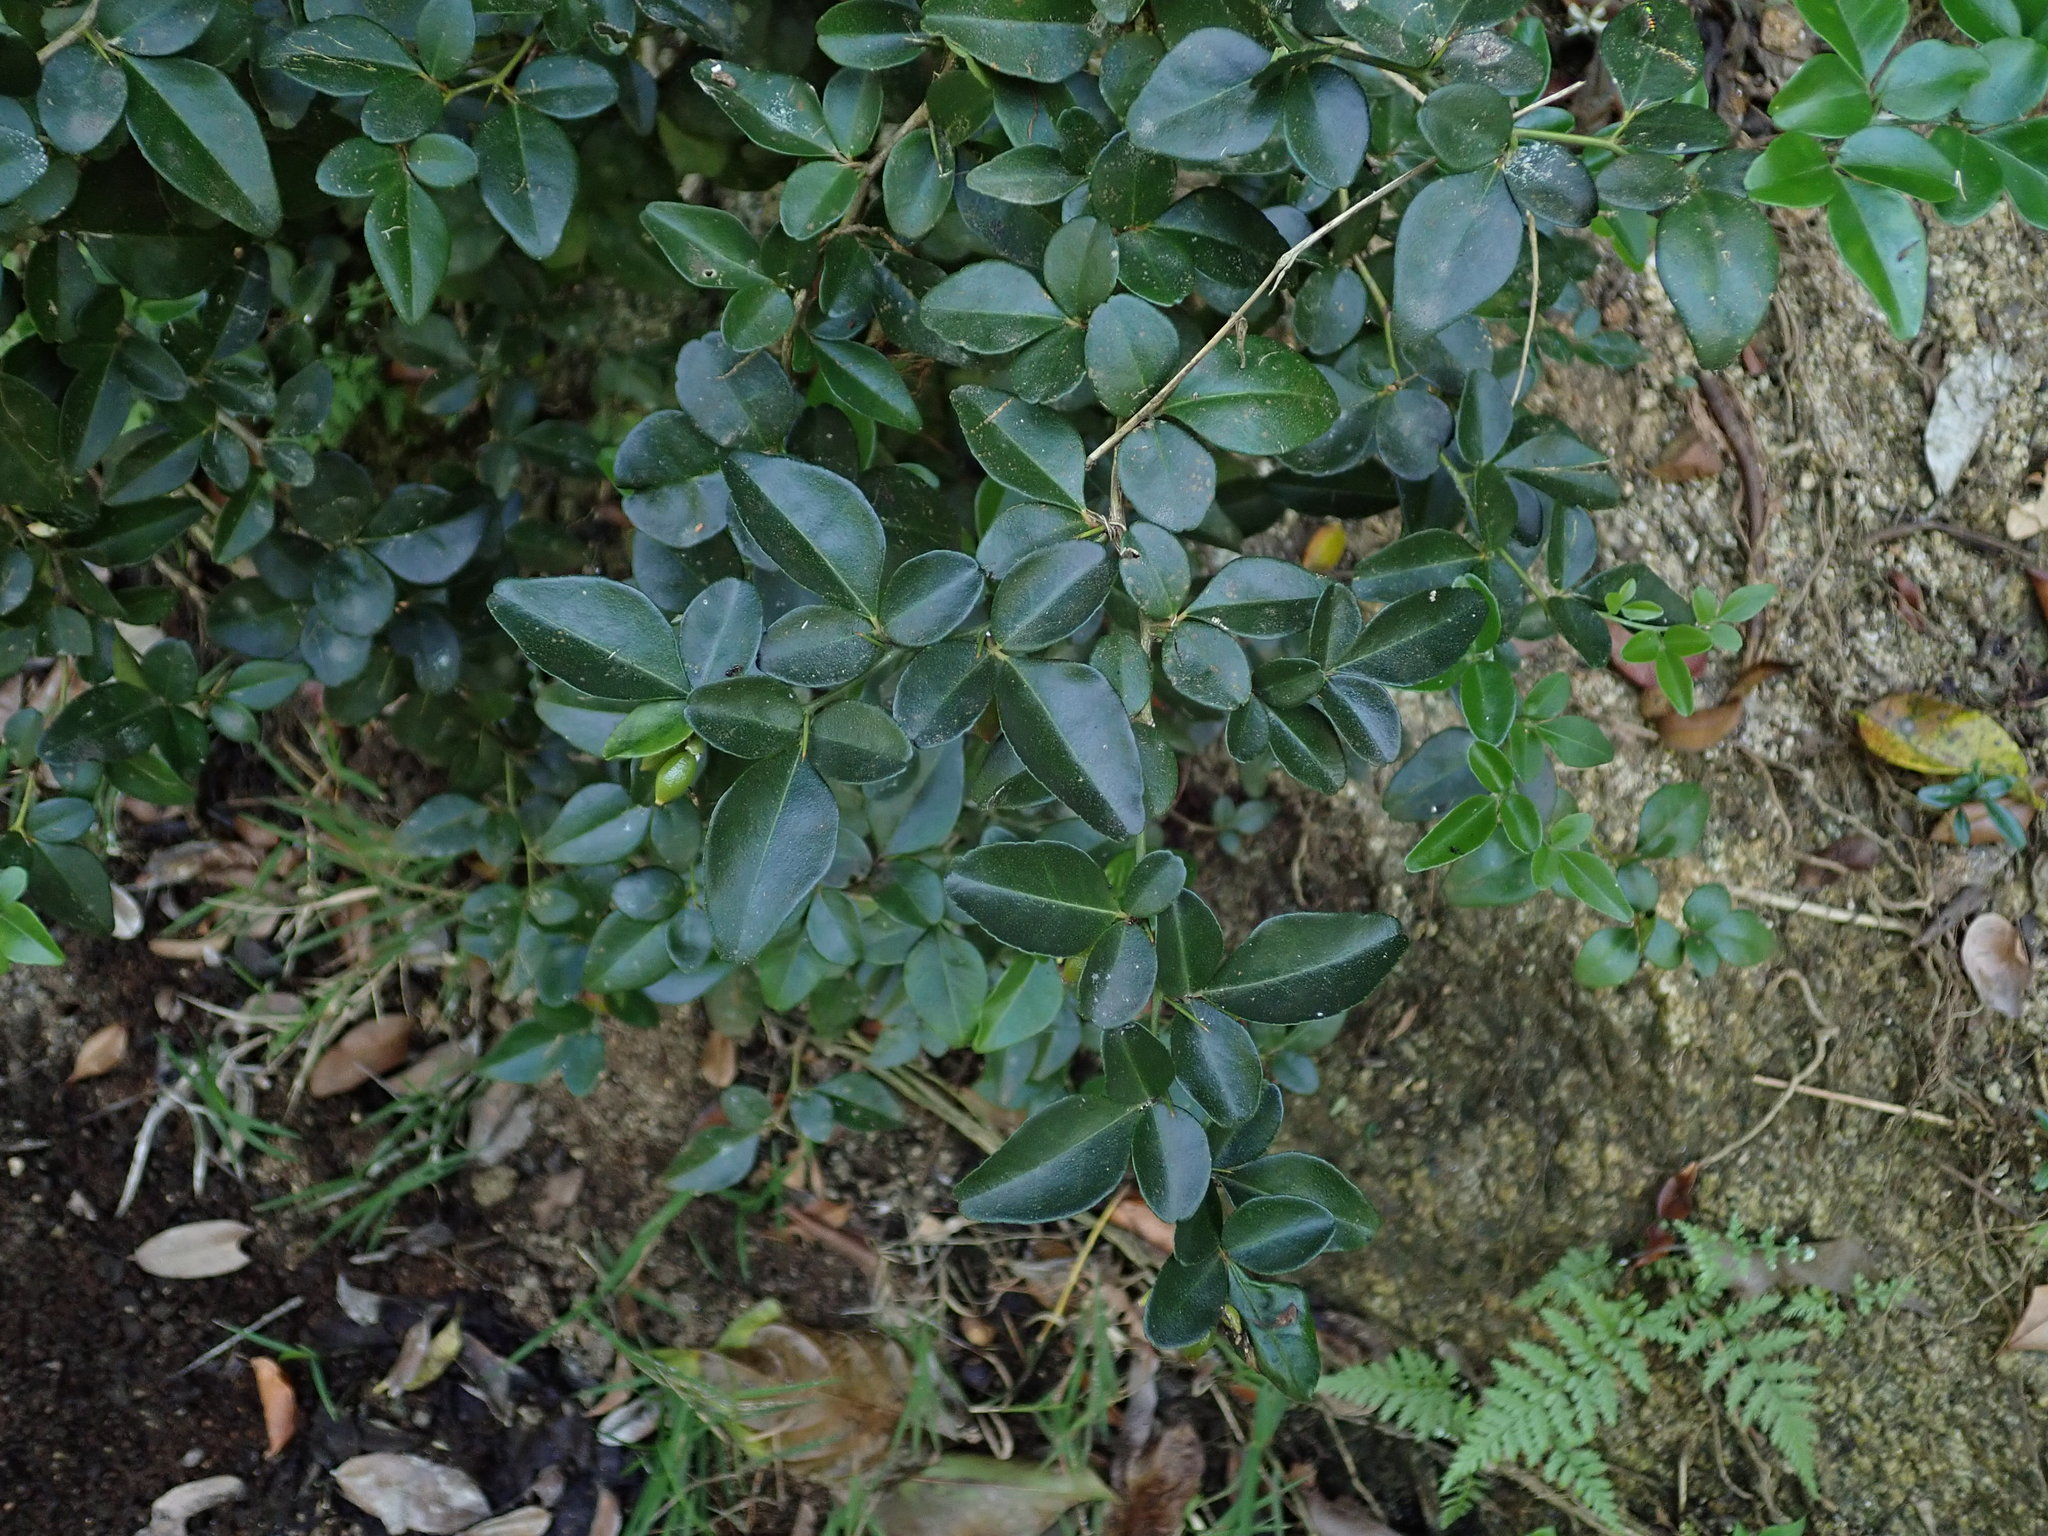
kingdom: Plantae
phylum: Tracheophyta
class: Magnoliopsida
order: Sapindales
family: Rutaceae
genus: Triphasia
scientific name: Triphasia trifolia
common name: Limeberry
